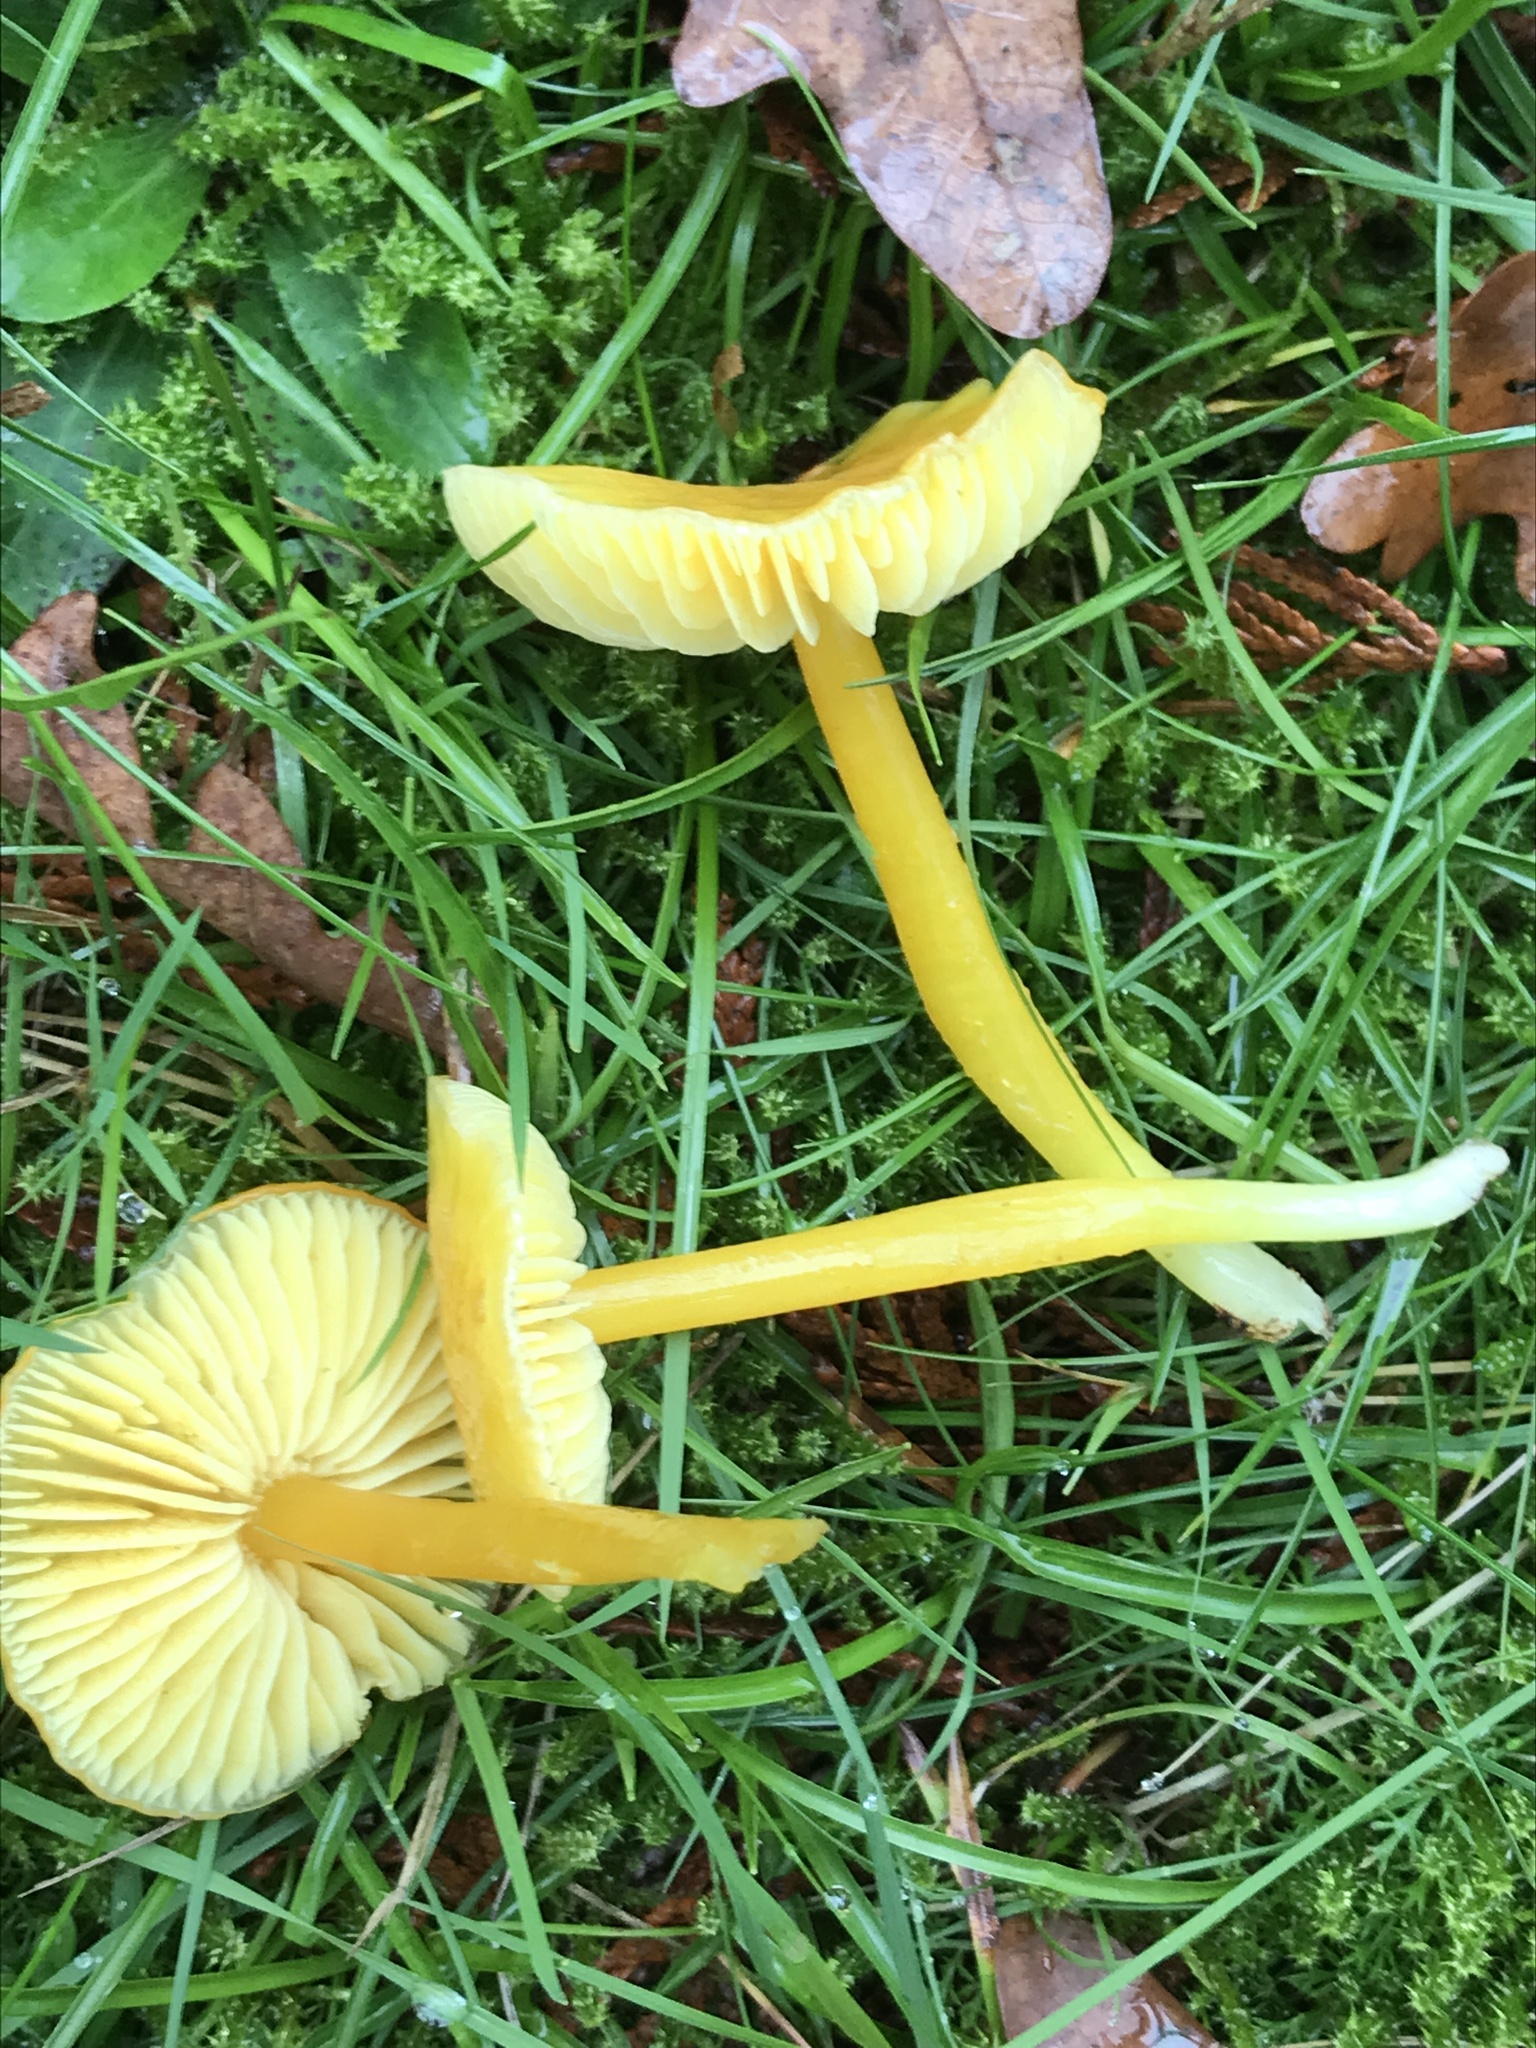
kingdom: Fungi
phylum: Basidiomycota
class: Agaricomycetes
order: Agaricales
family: Hygrophoraceae
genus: Hygrocybe
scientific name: Hygrocybe chlorophana
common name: Golden waxcap
